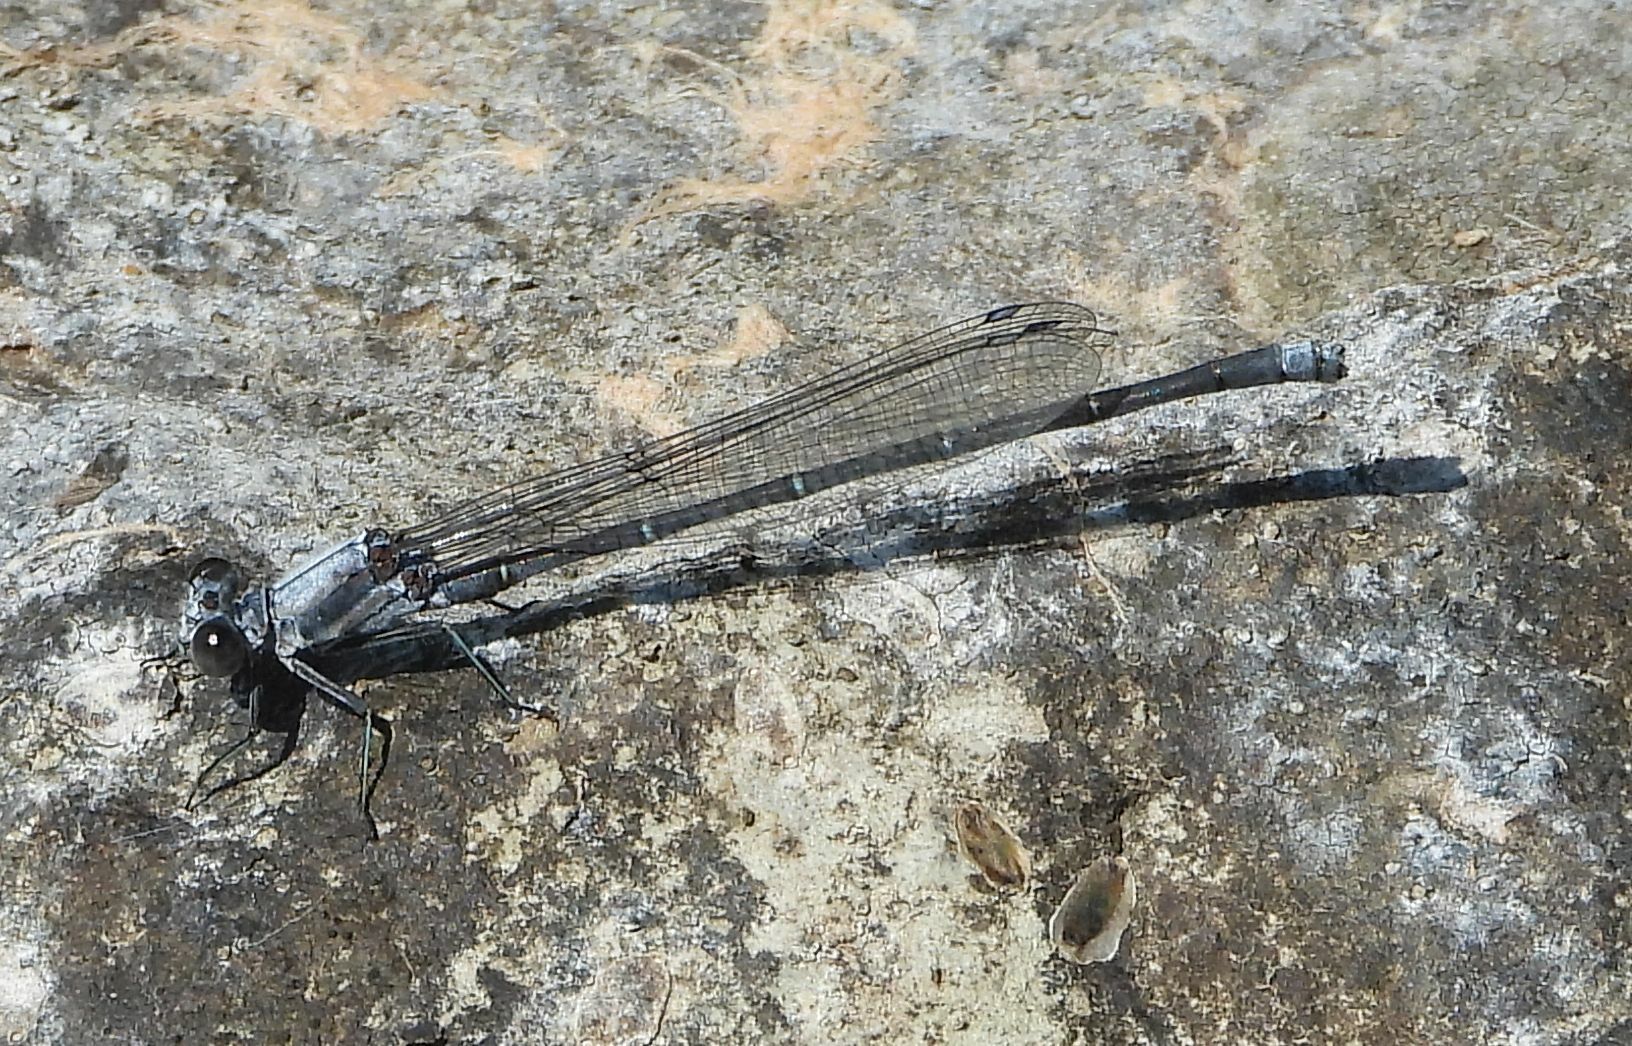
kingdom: Animalia
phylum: Arthropoda
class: Insecta
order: Odonata
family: Coenagrionidae
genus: Argia
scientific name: Argia moesta
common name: Powdered dancer
